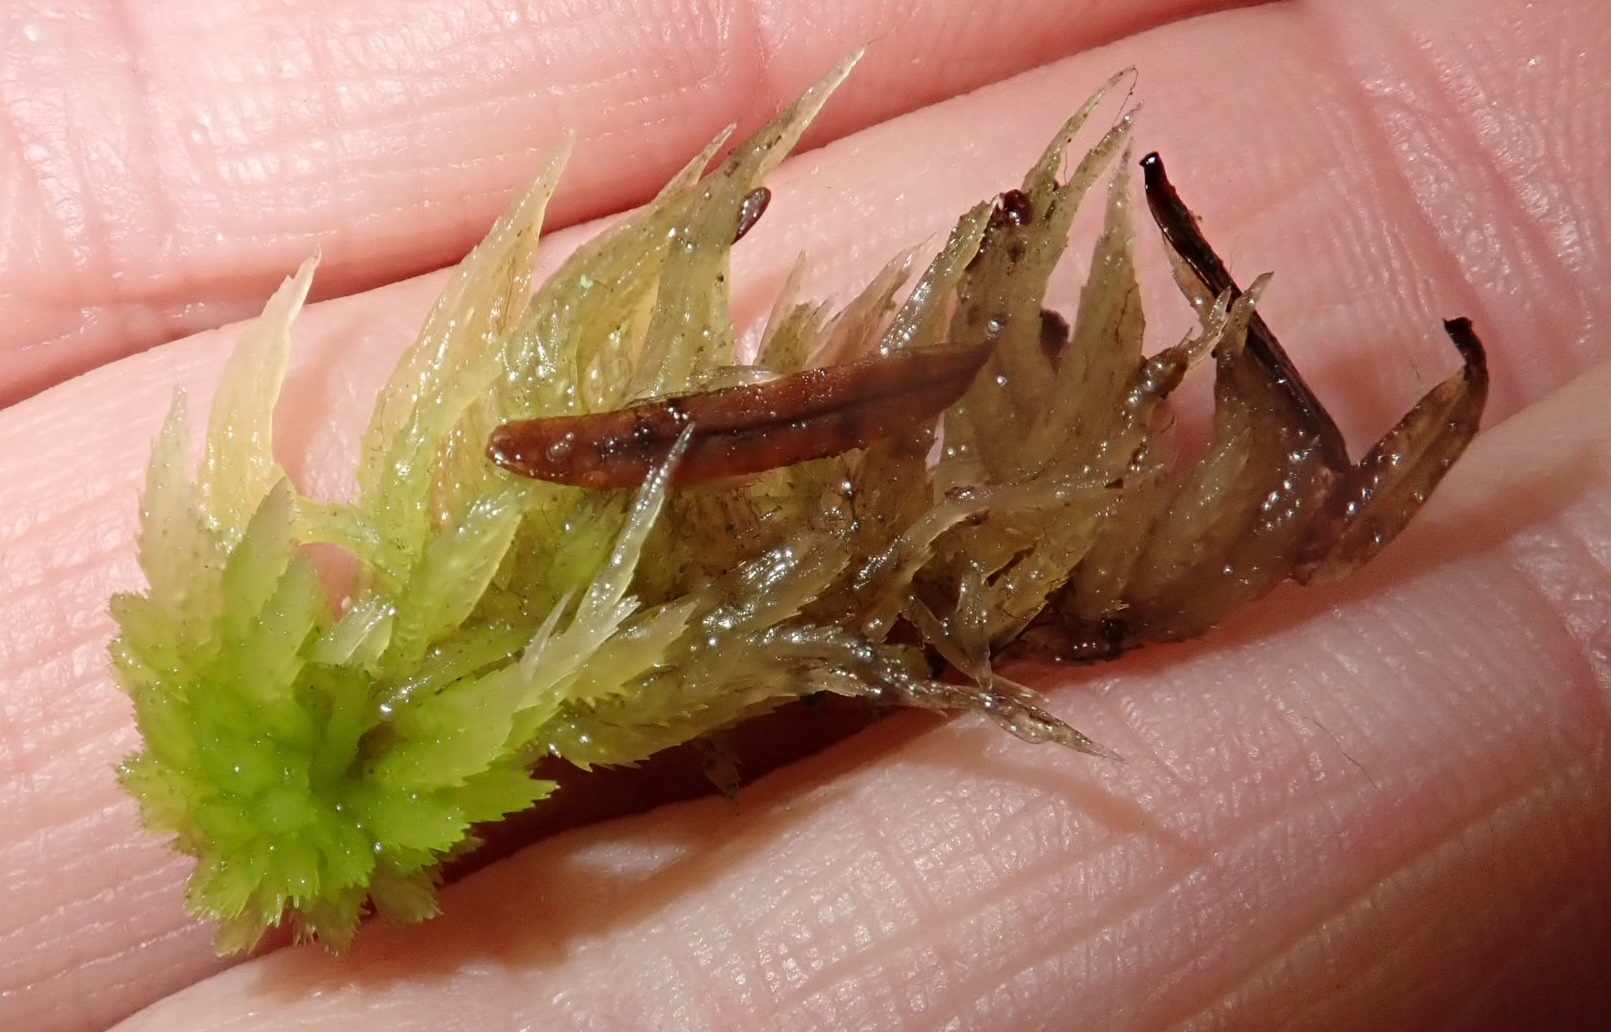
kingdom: Plantae
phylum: Bryophyta
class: Sphagnopsida
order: Sphagnales
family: Sphagnaceae
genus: Sphagnum
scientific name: Sphagnum girgensohnii
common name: Girgensohn's peat moss
